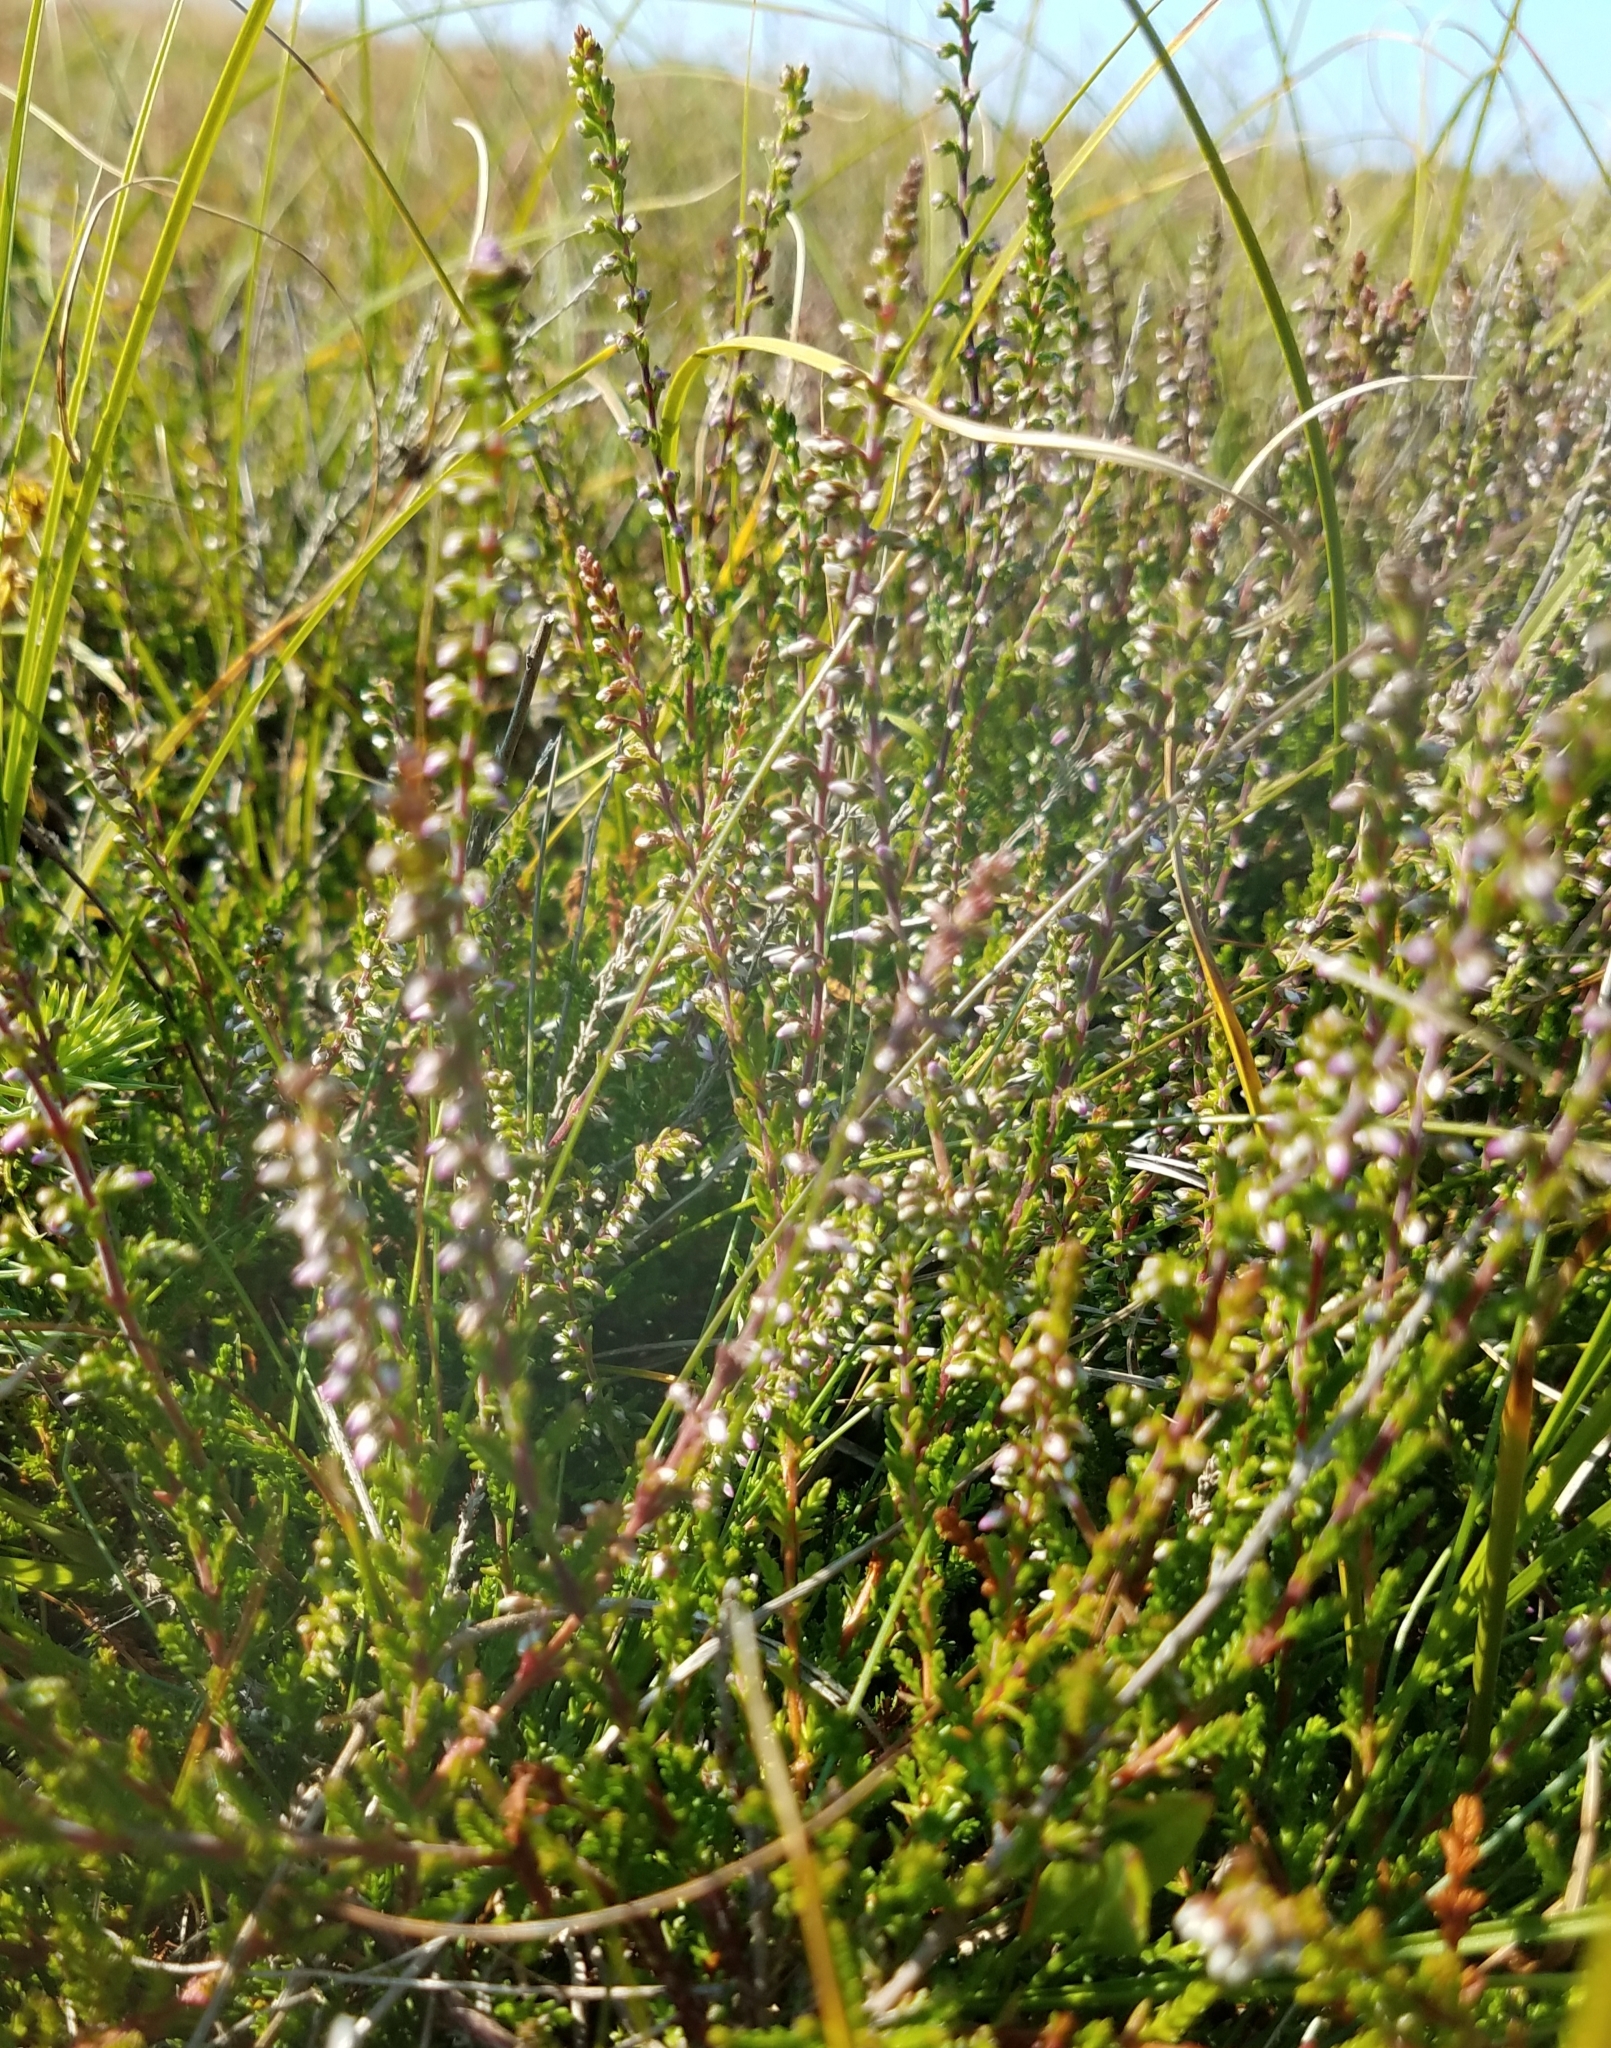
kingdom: Plantae
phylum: Tracheophyta
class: Magnoliopsida
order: Ericales
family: Ericaceae
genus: Calluna
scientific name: Calluna vulgaris
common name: Heather
